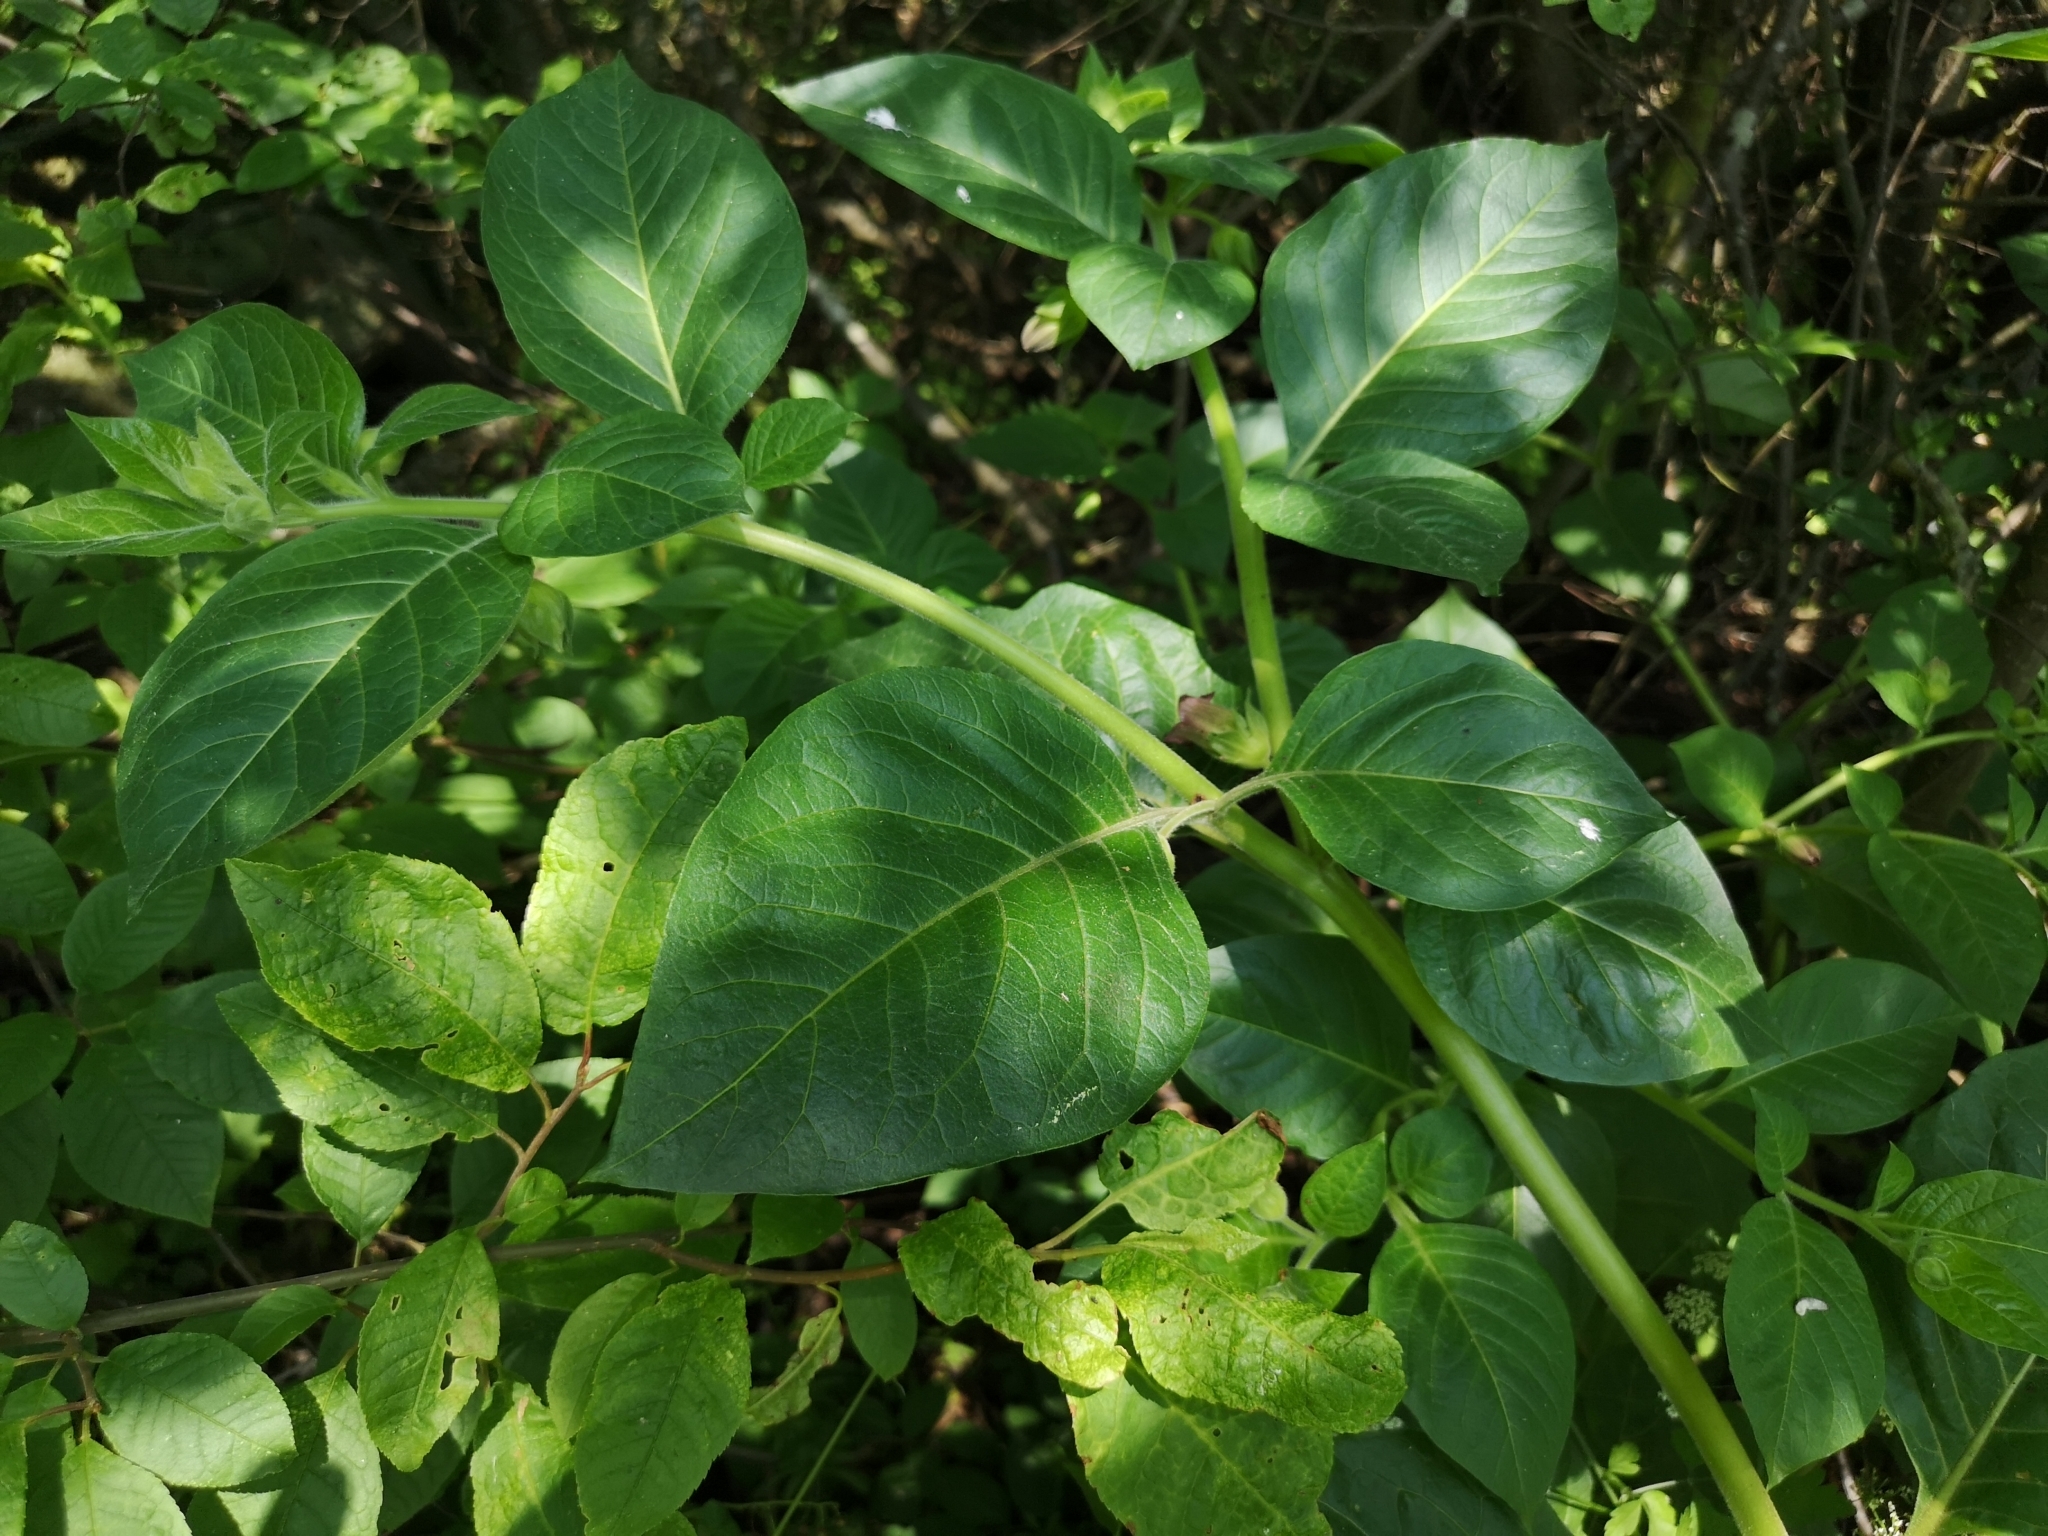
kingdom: Plantae
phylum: Tracheophyta
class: Magnoliopsida
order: Solanales
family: Solanaceae
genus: Atropa
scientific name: Atropa belladonna
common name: Deadly nightshade
